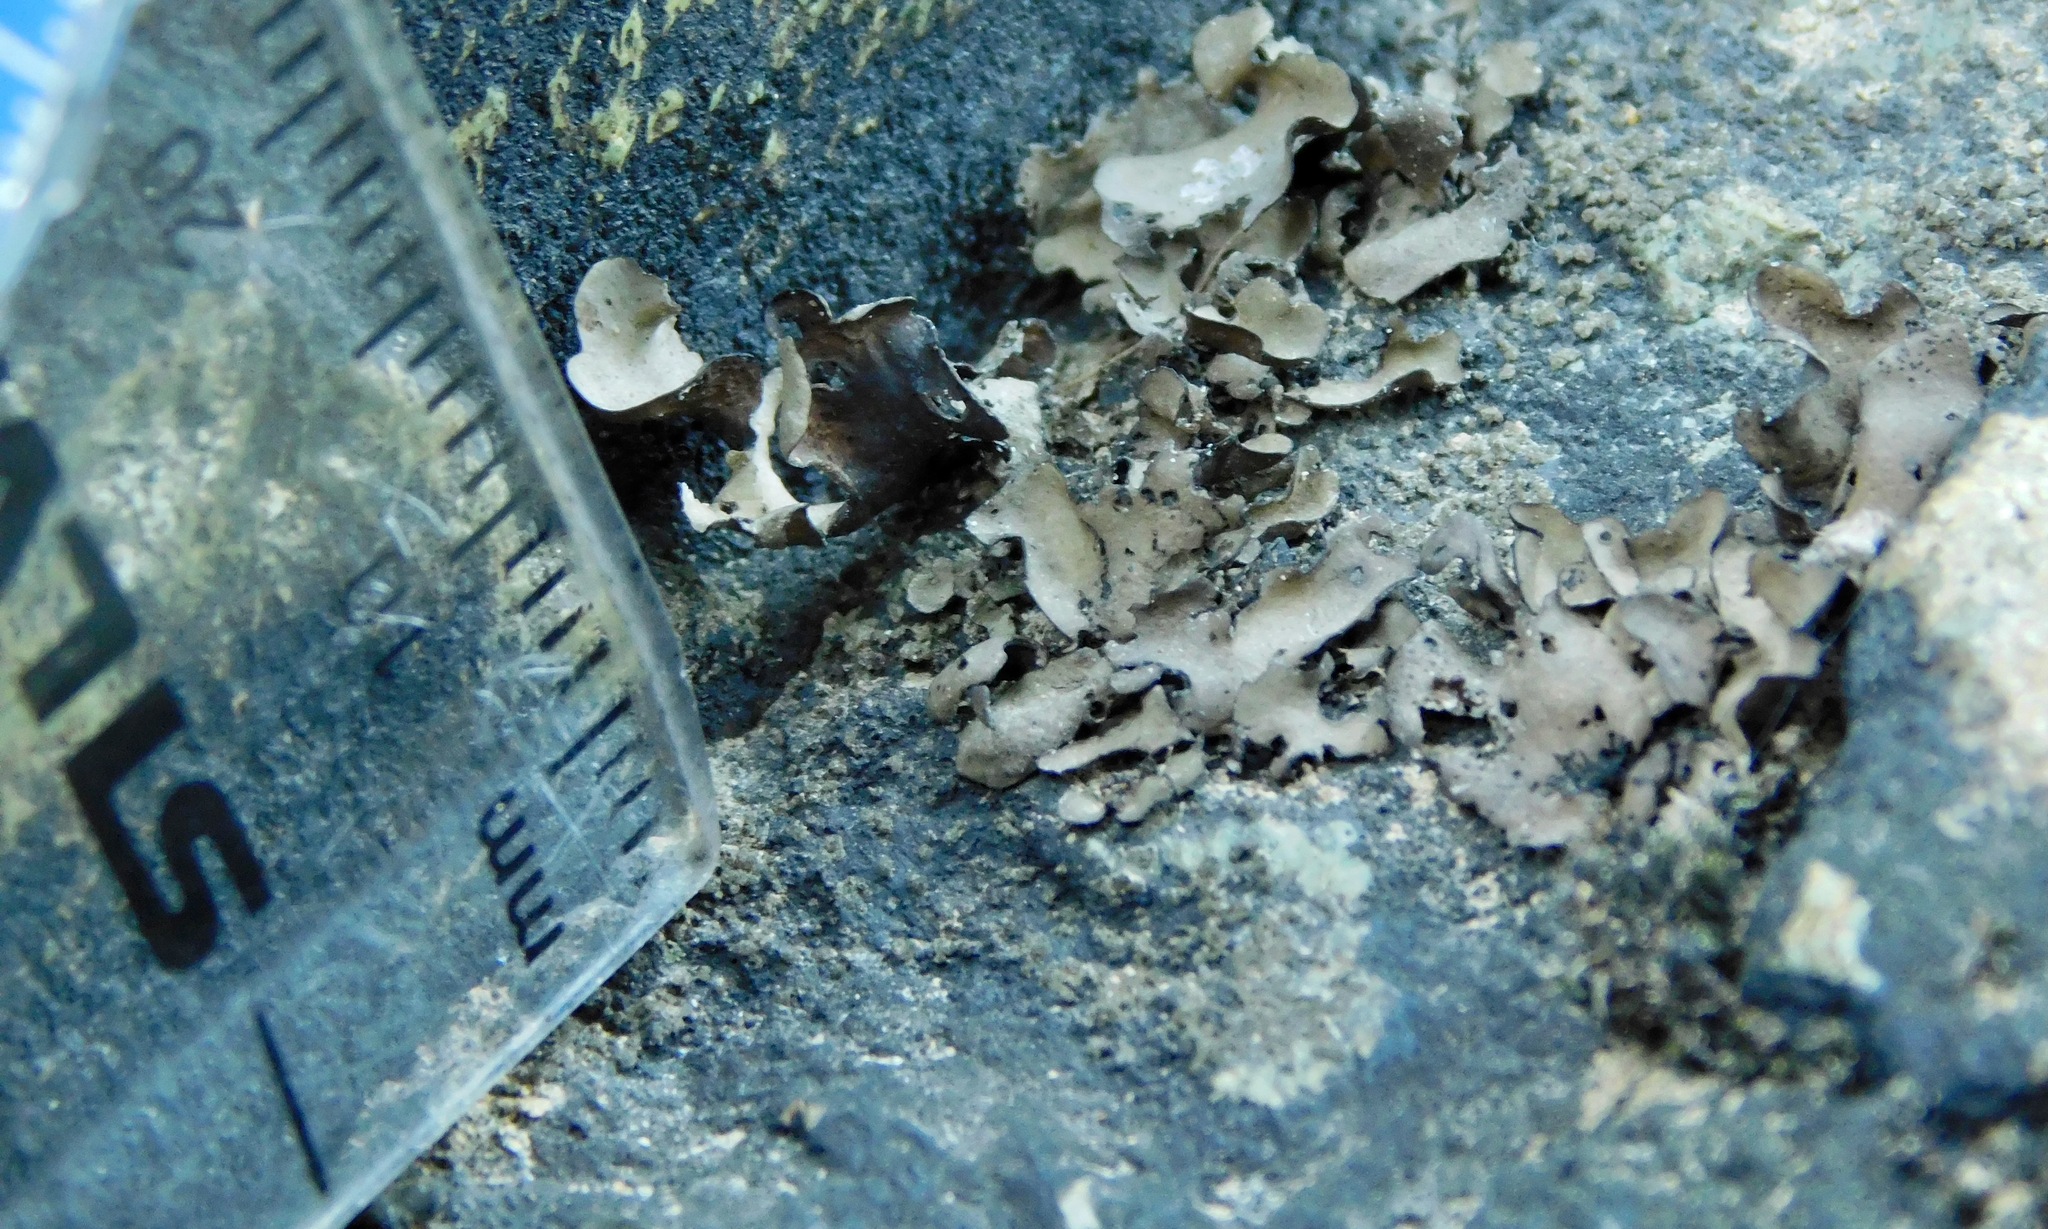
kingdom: Fungi
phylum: Ascomycota
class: Eurotiomycetes
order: Verrucariales
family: Verrucariaceae
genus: Dermatocarpon
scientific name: Dermatocarpon arenosaxi
